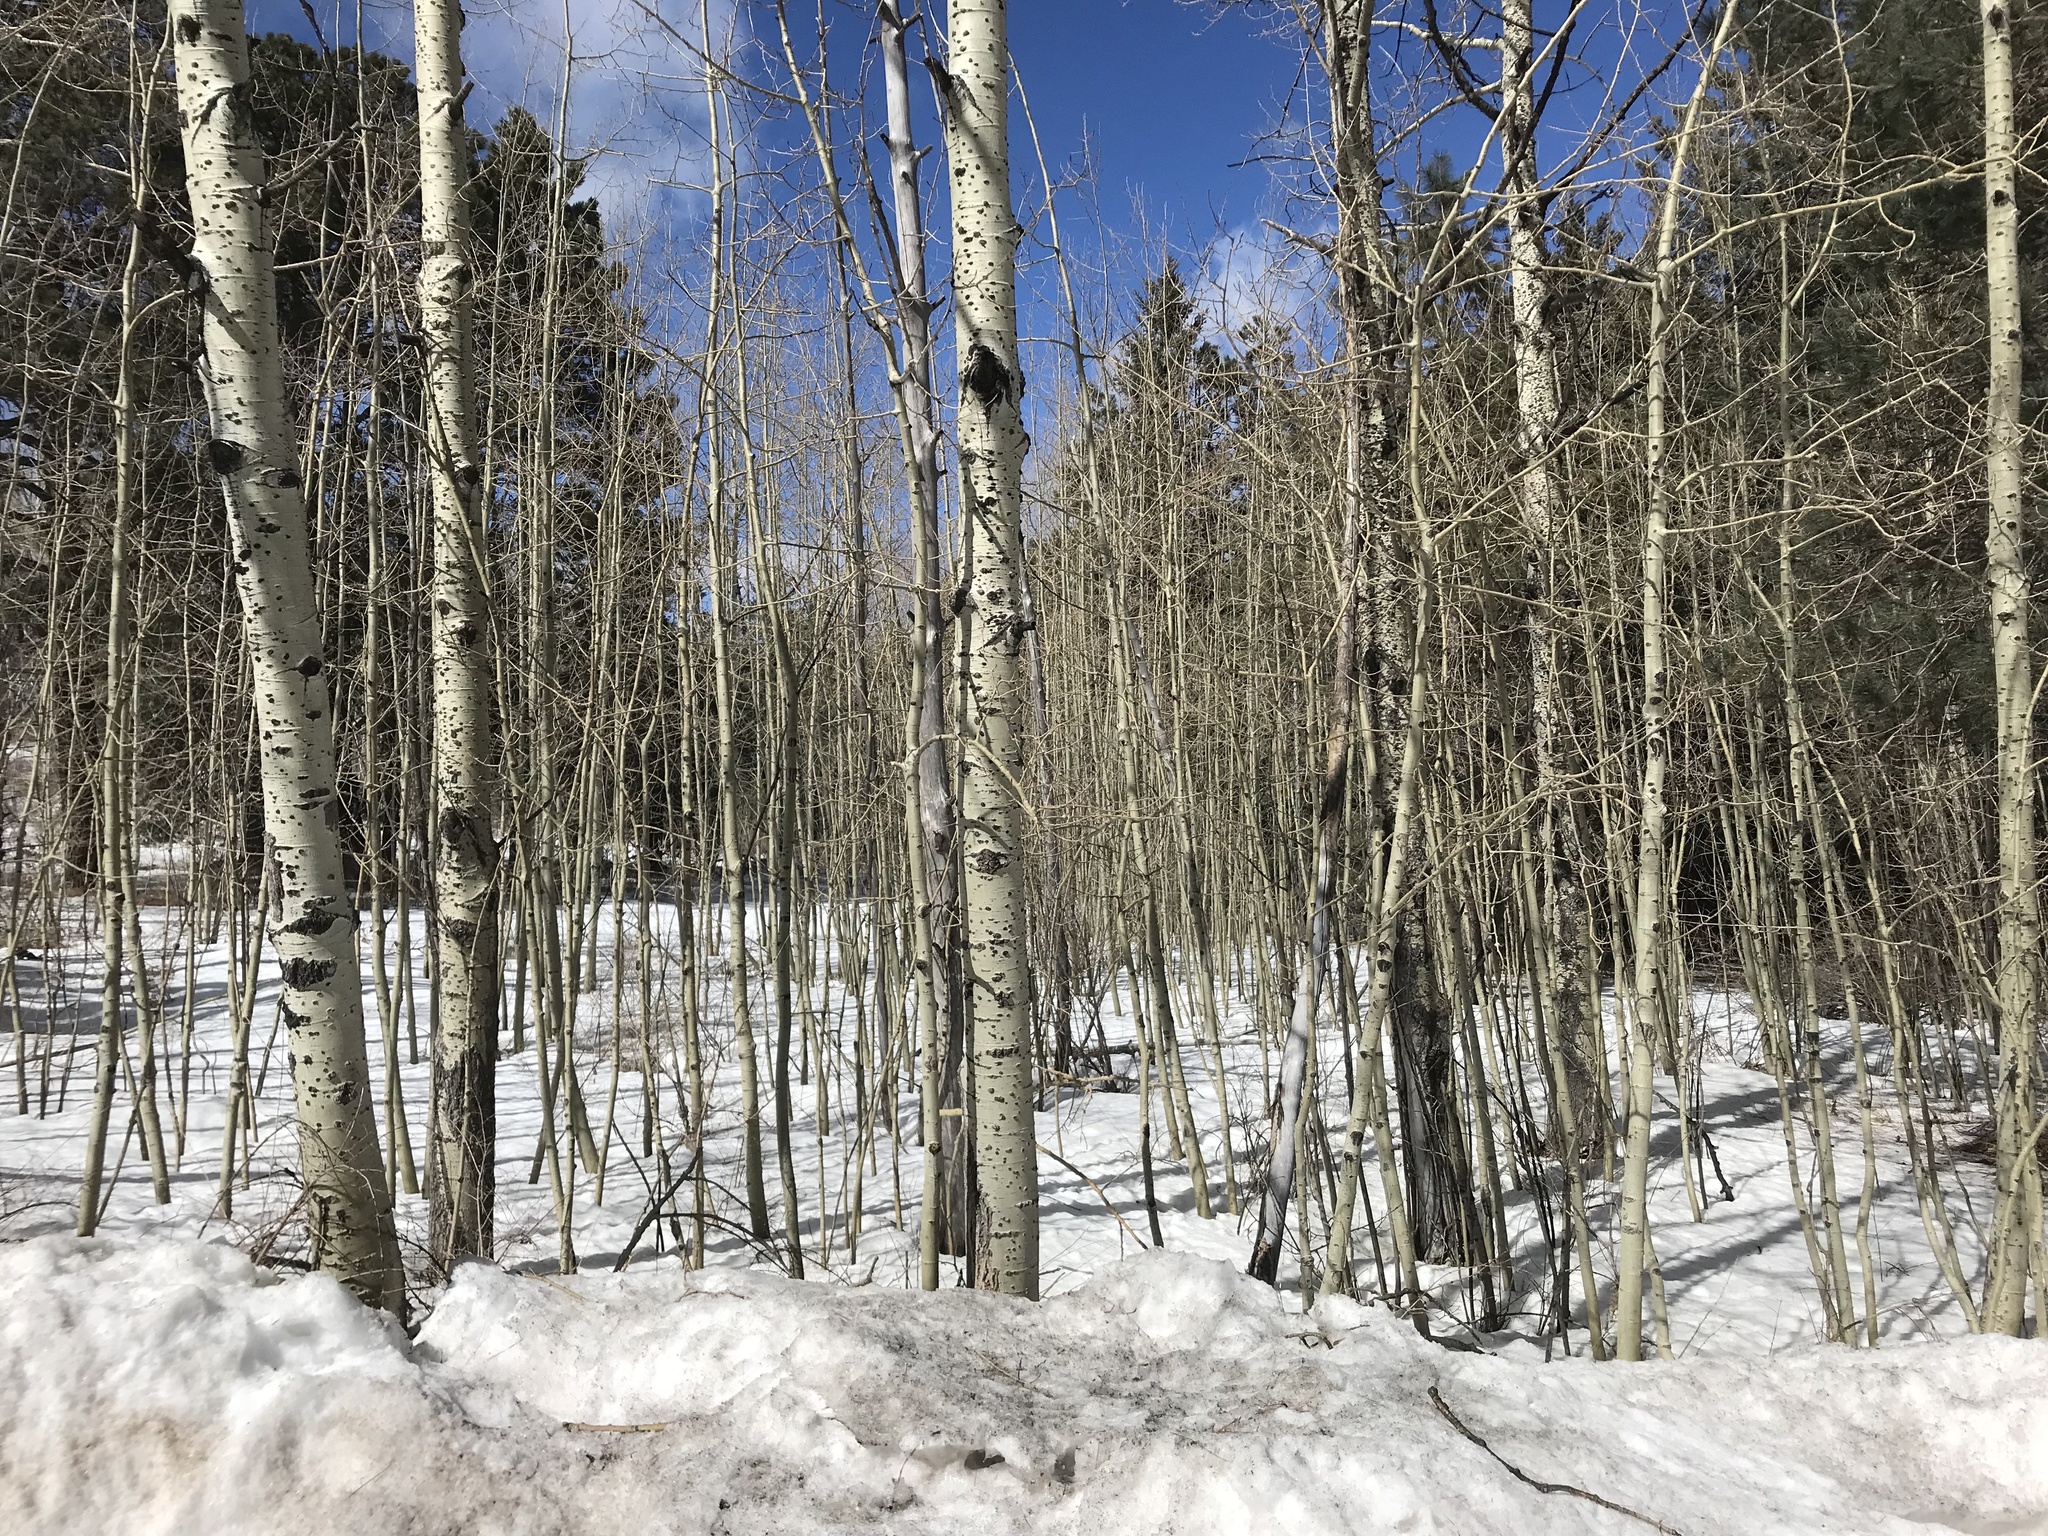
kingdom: Plantae
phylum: Tracheophyta
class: Magnoliopsida
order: Malpighiales
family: Salicaceae
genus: Populus
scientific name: Populus tremuloides
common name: Quaking aspen
